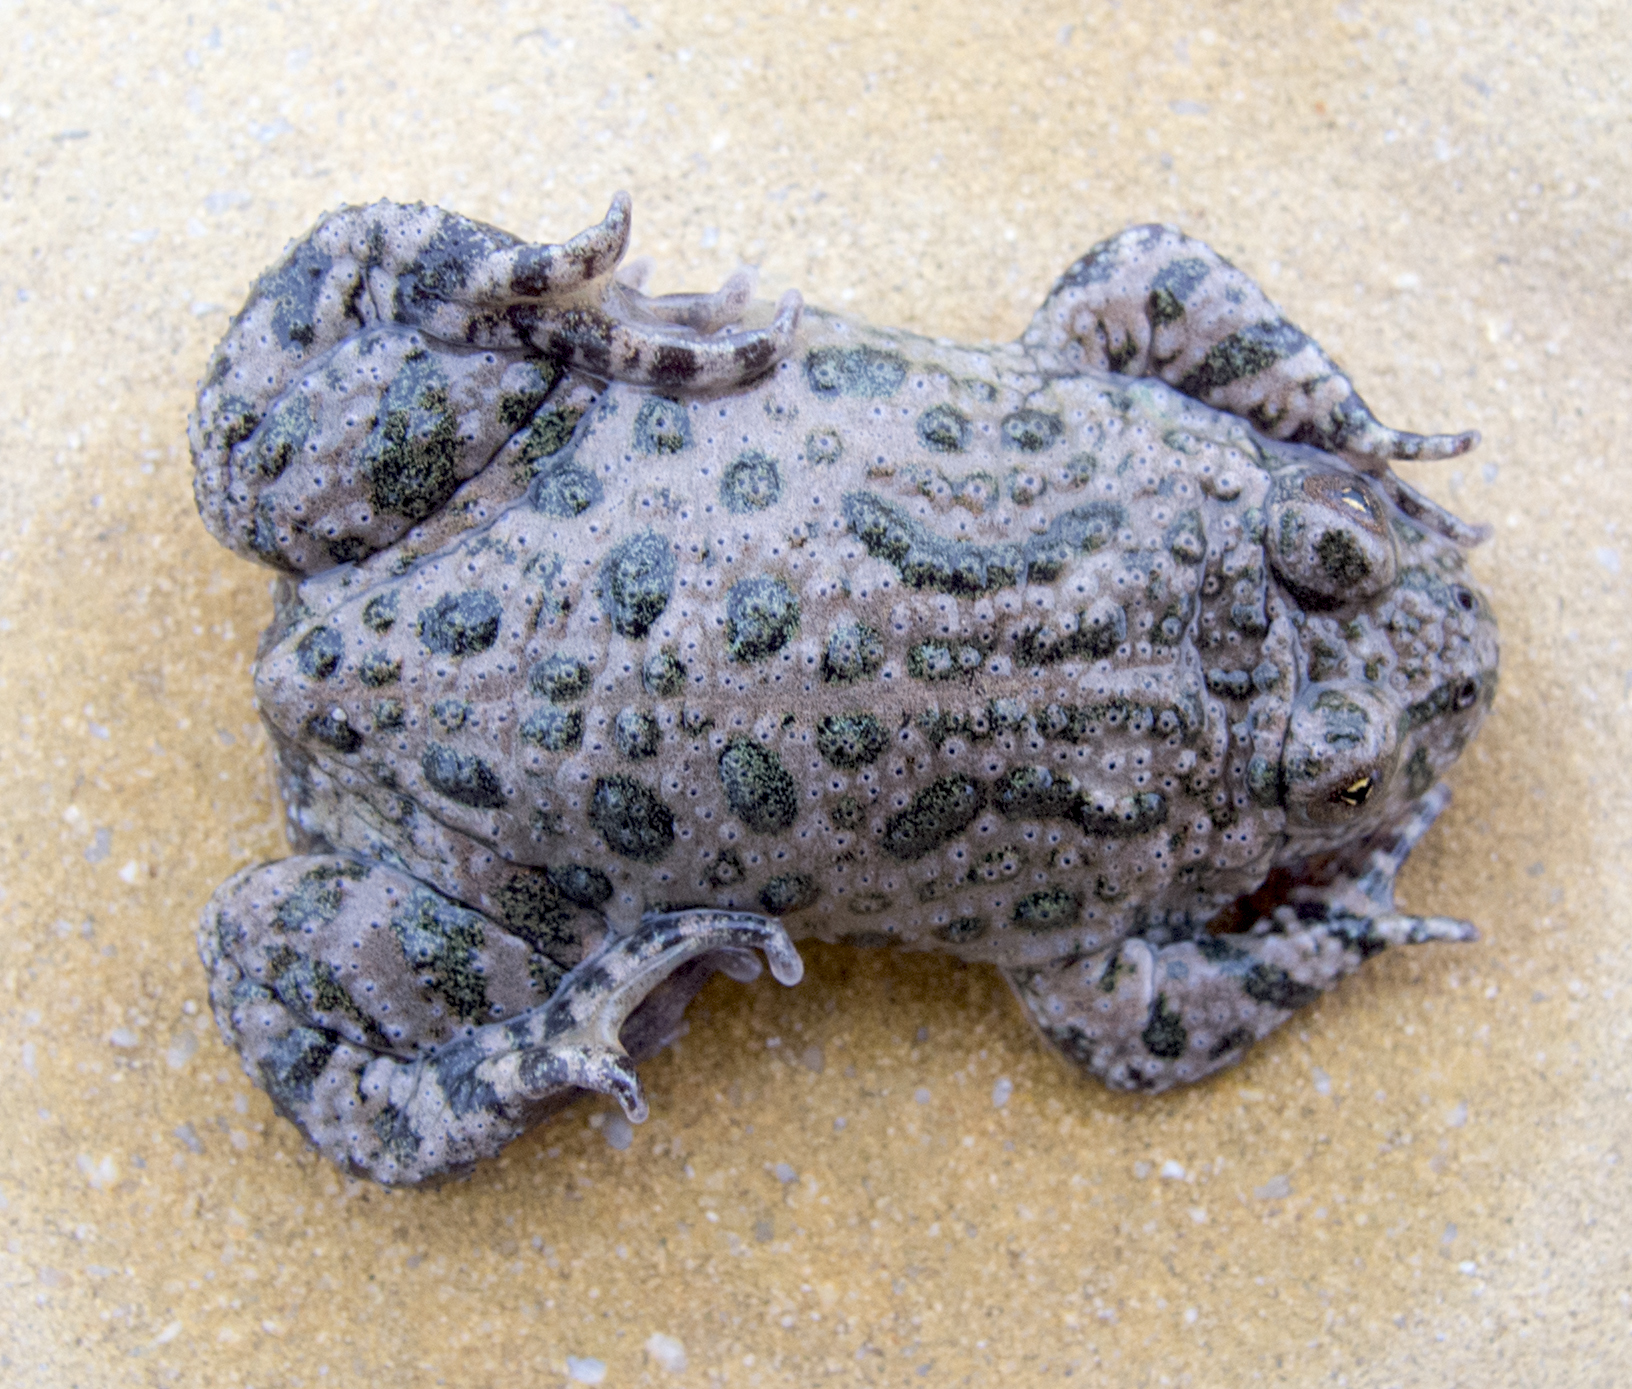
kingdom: Animalia
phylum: Chordata
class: Amphibia
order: Anura
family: Bombinatoridae
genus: Bombina
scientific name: Bombina bombina
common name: Fire-bellied toad
